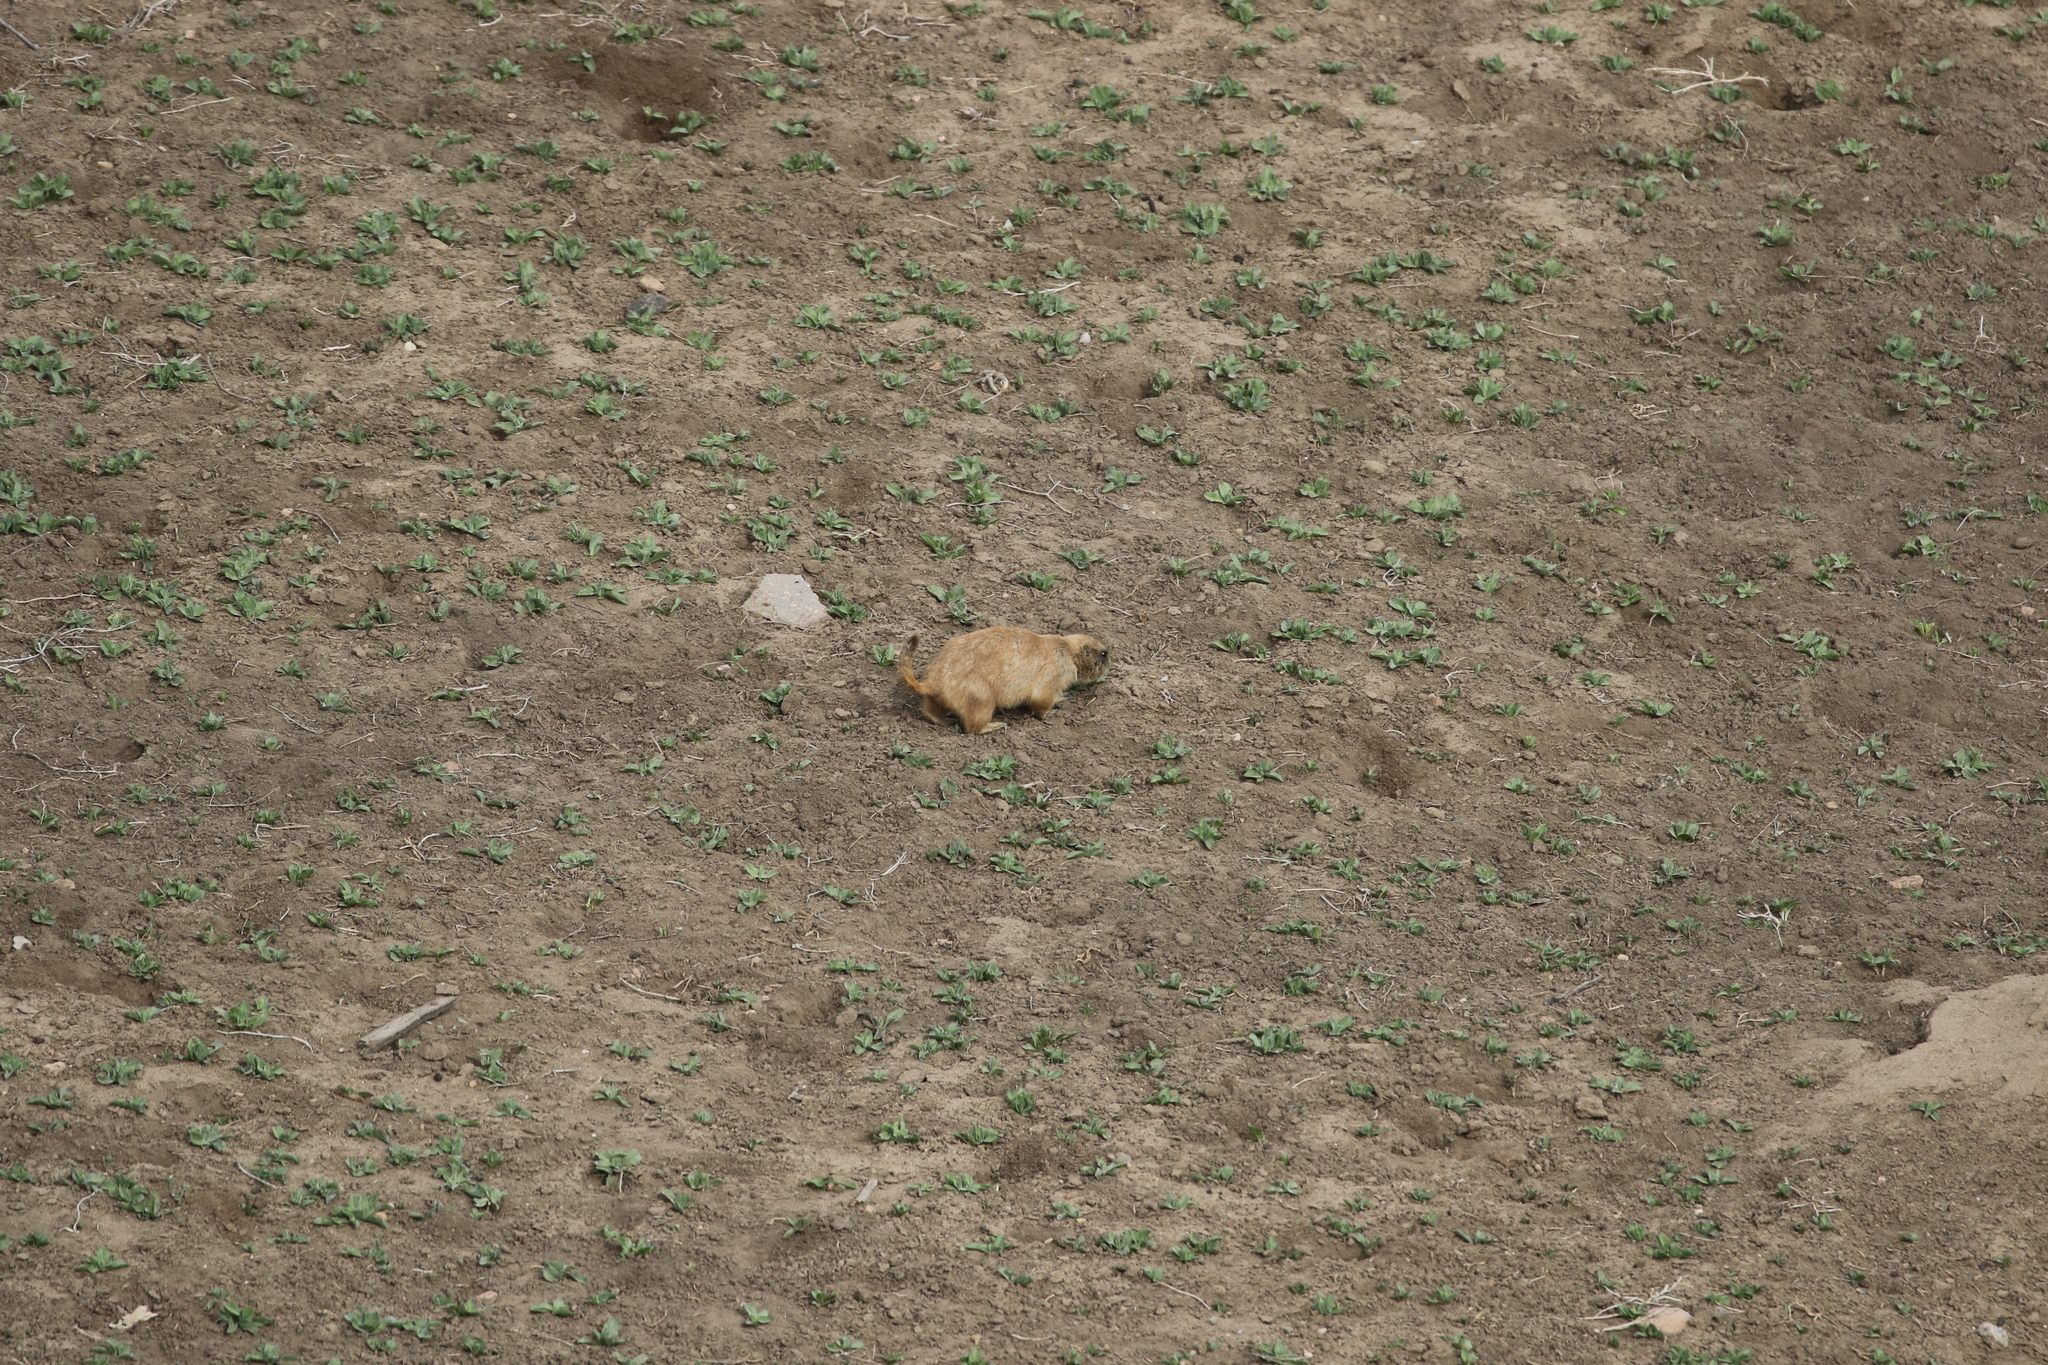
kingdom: Animalia
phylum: Chordata
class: Mammalia
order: Rodentia
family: Sciuridae
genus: Cynomys
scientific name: Cynomys ludovicianus
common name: Black-tailed prairie dog
